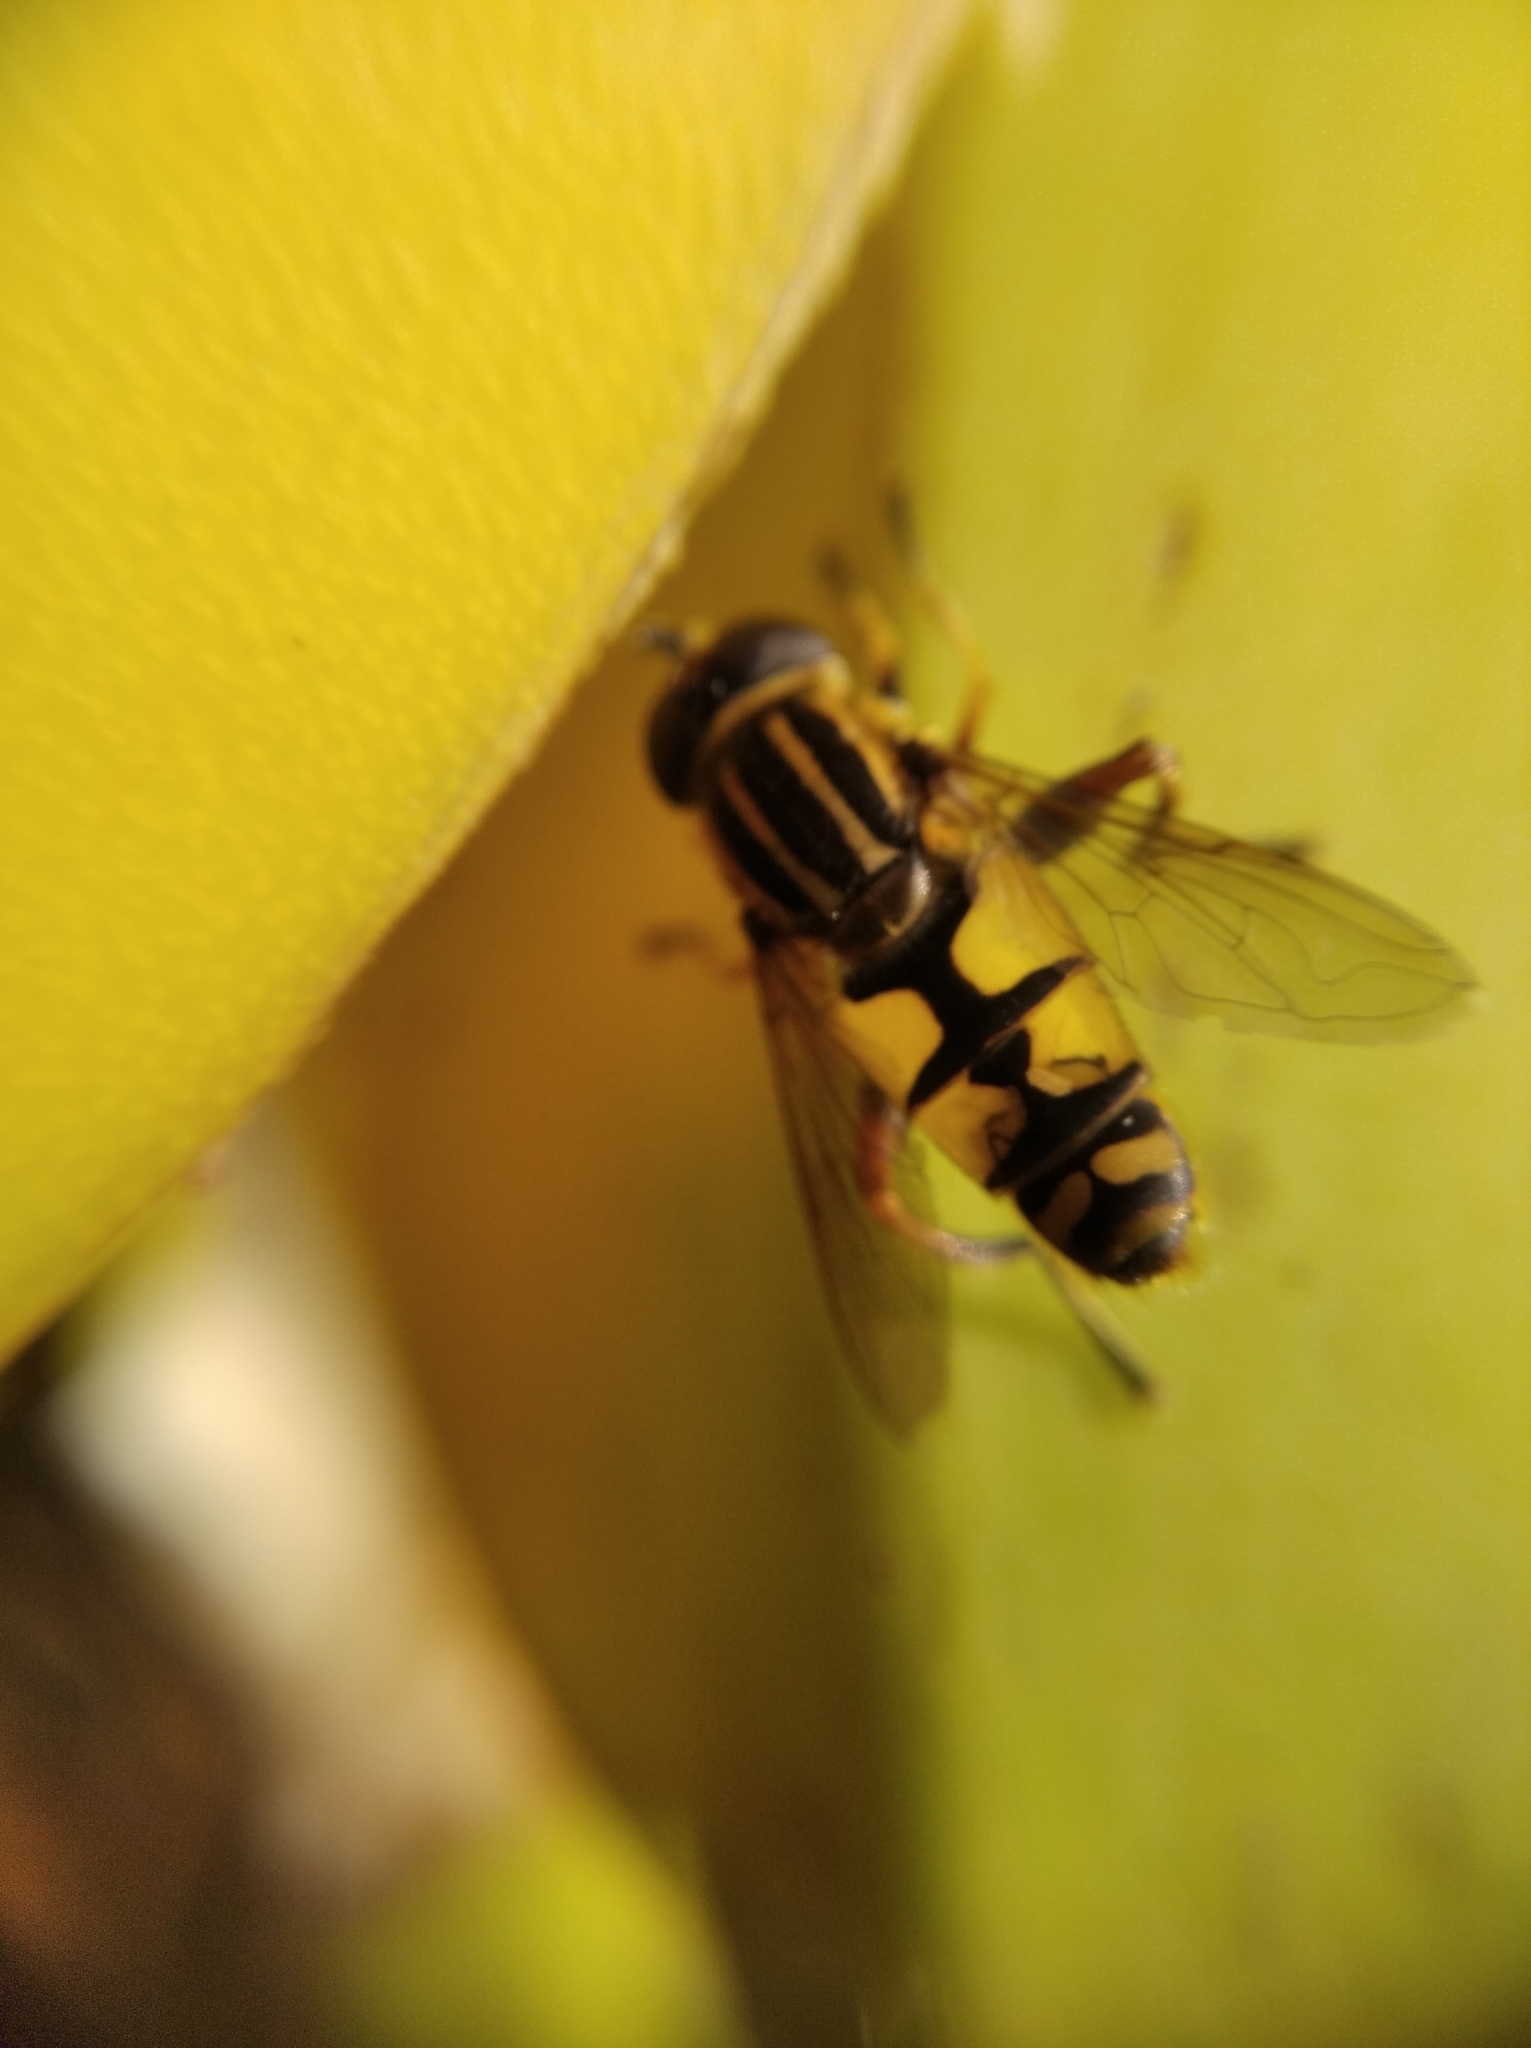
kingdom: Animalia
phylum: Arthropoda
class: Insecta
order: Diptera
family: Syrphidae
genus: Helophilus
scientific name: Helophilus pendulus
